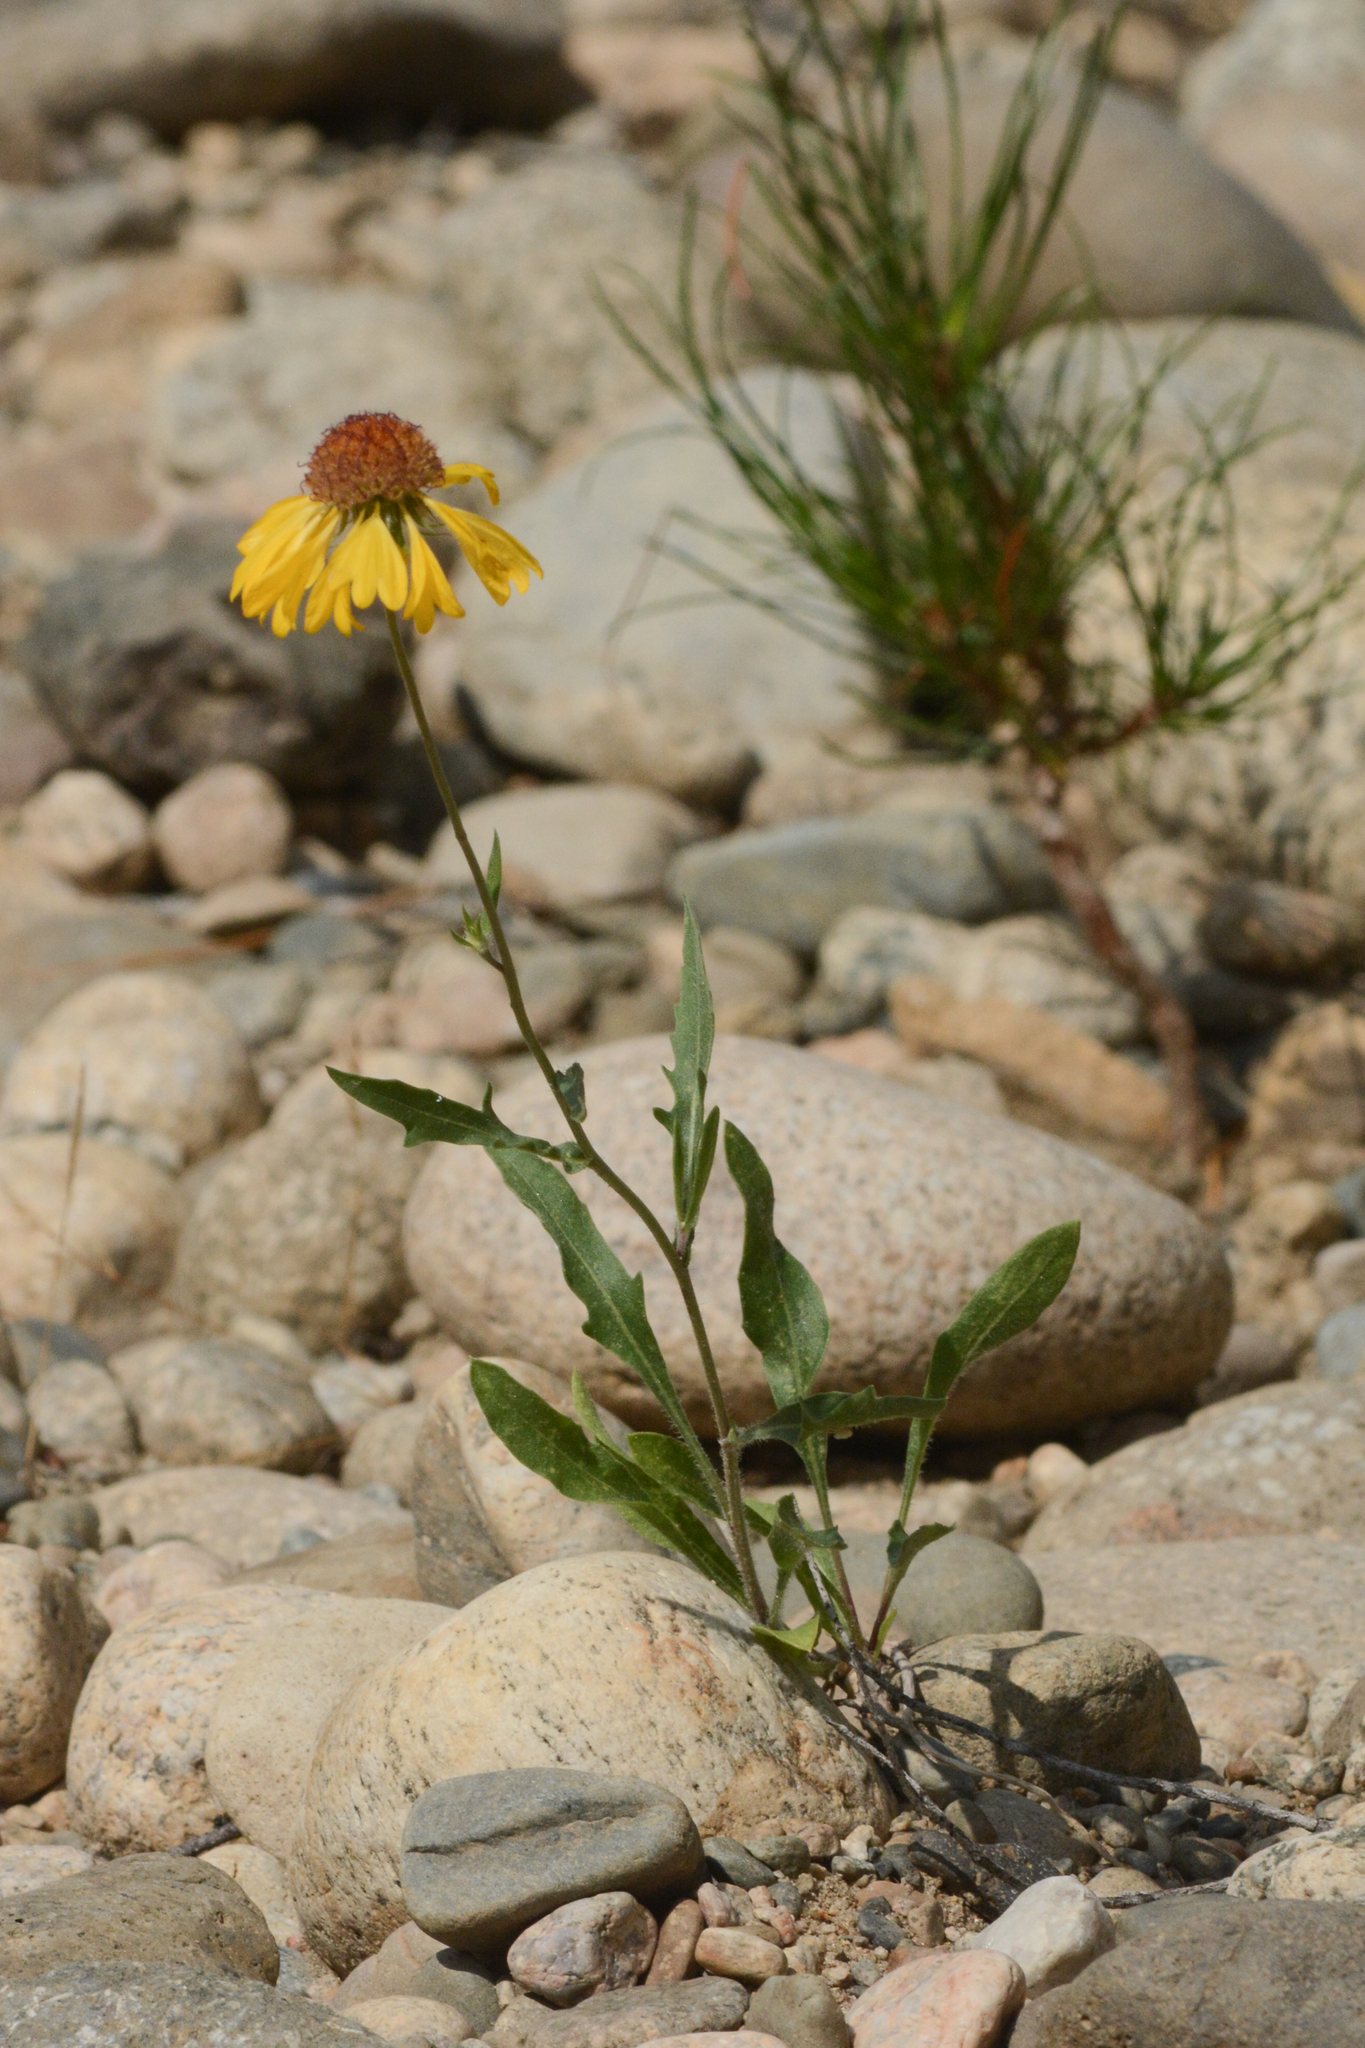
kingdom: Plantae
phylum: Tracheophyta
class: Magnoliopsida
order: Asterales
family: Asteraceae
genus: Gaillardia
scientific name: Gaillardia aristata
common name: Blanket-flower
